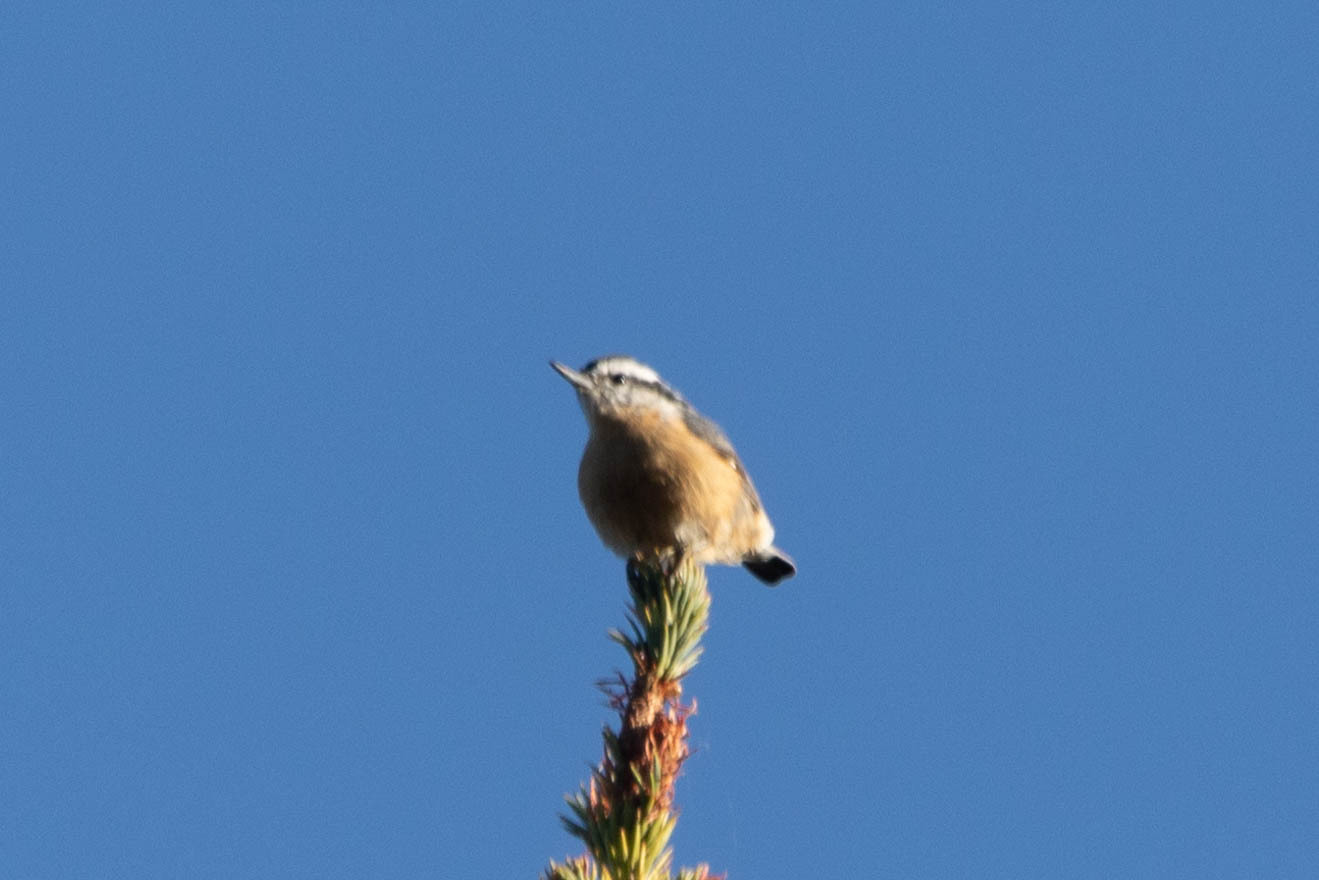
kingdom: Animalia
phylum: Chordata
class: Aves
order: Passeriformes
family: Sittidae
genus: Sitta
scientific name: Sitta canadensis
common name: Red-breasted nuthatch
